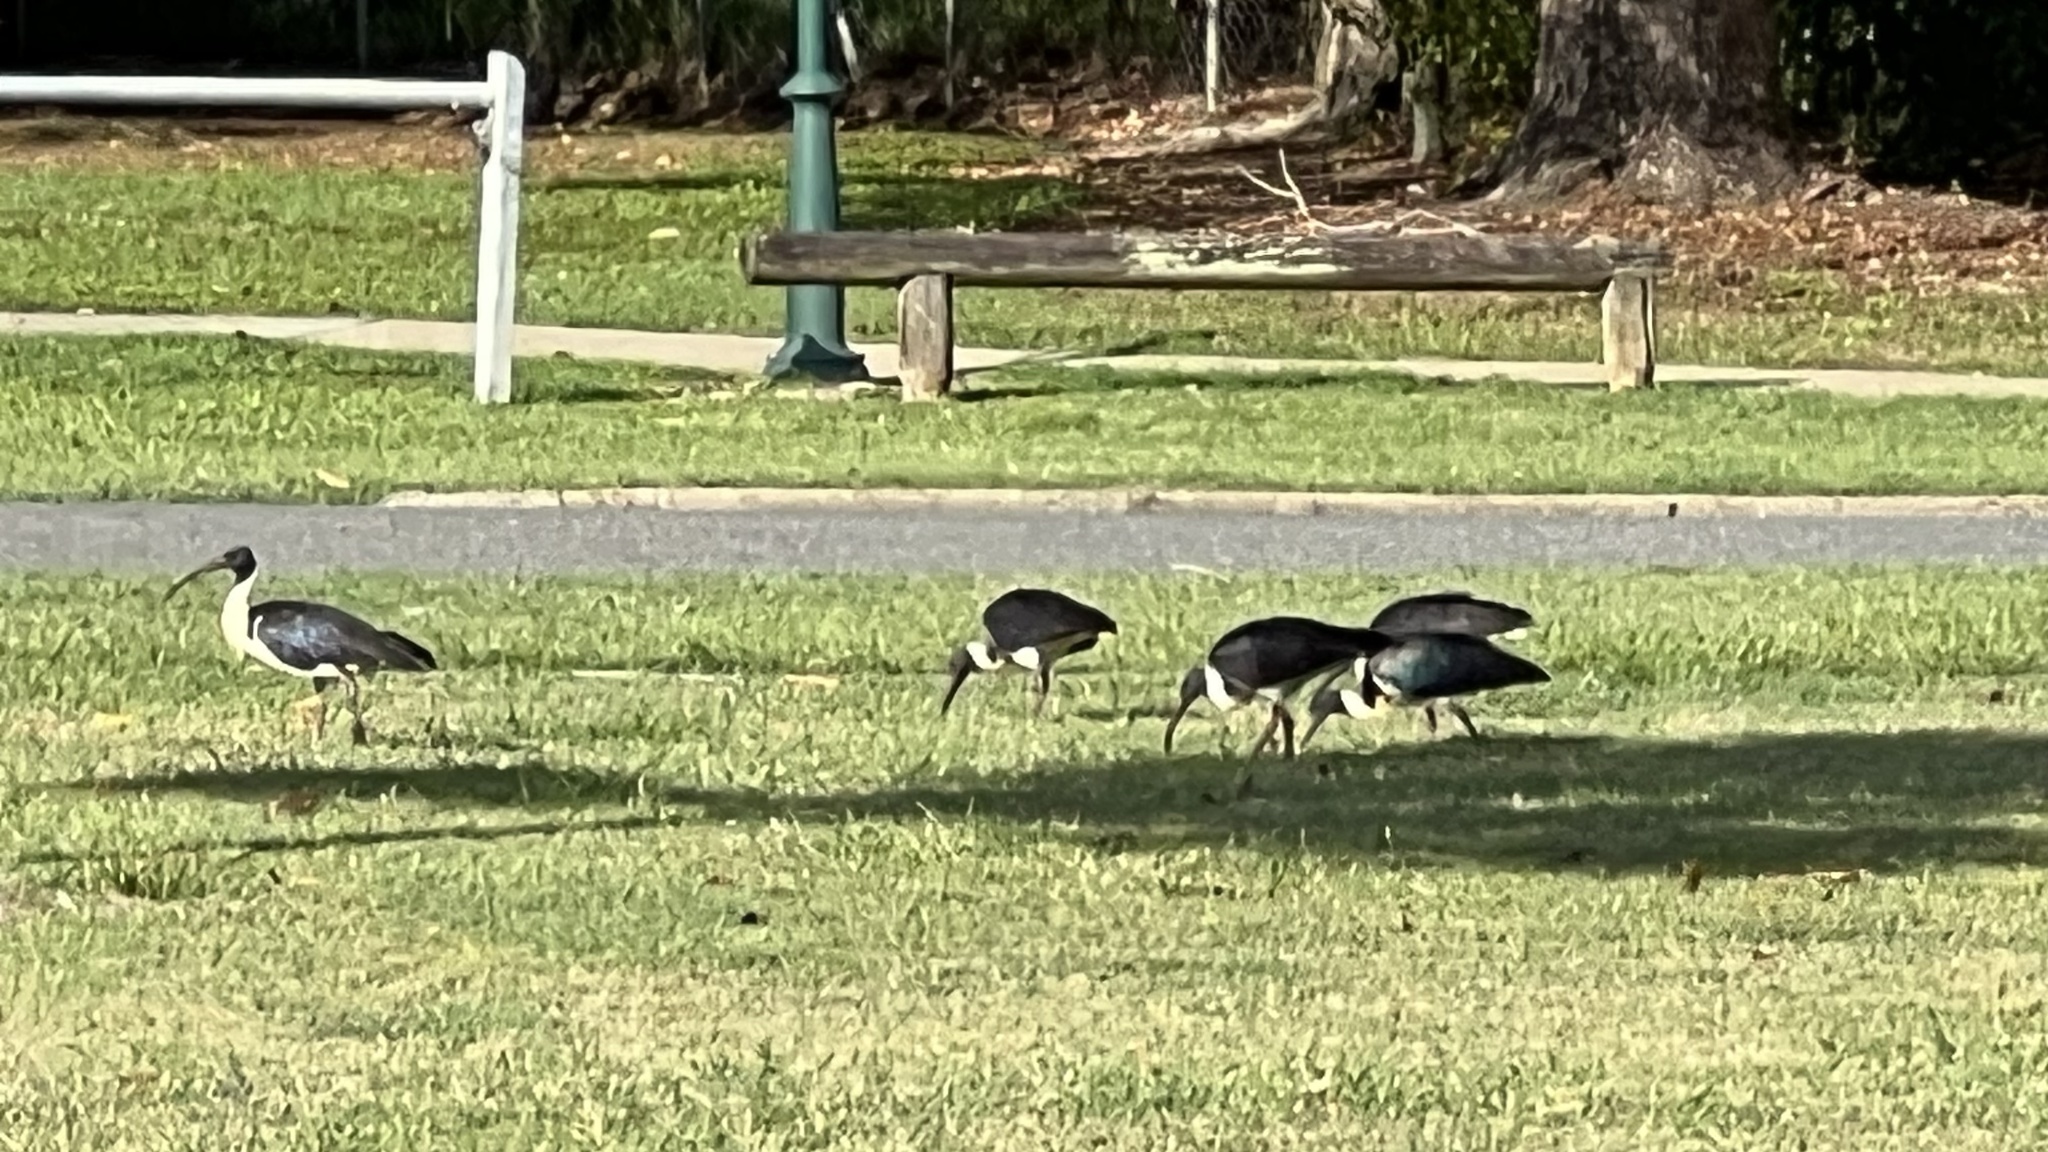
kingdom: Animalia
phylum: Chordata
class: Aves
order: Pelecaniformes
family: Threskiornithidae
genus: Threskiornis
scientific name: Threskiornis spinicollis
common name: Straw-necked ibis
